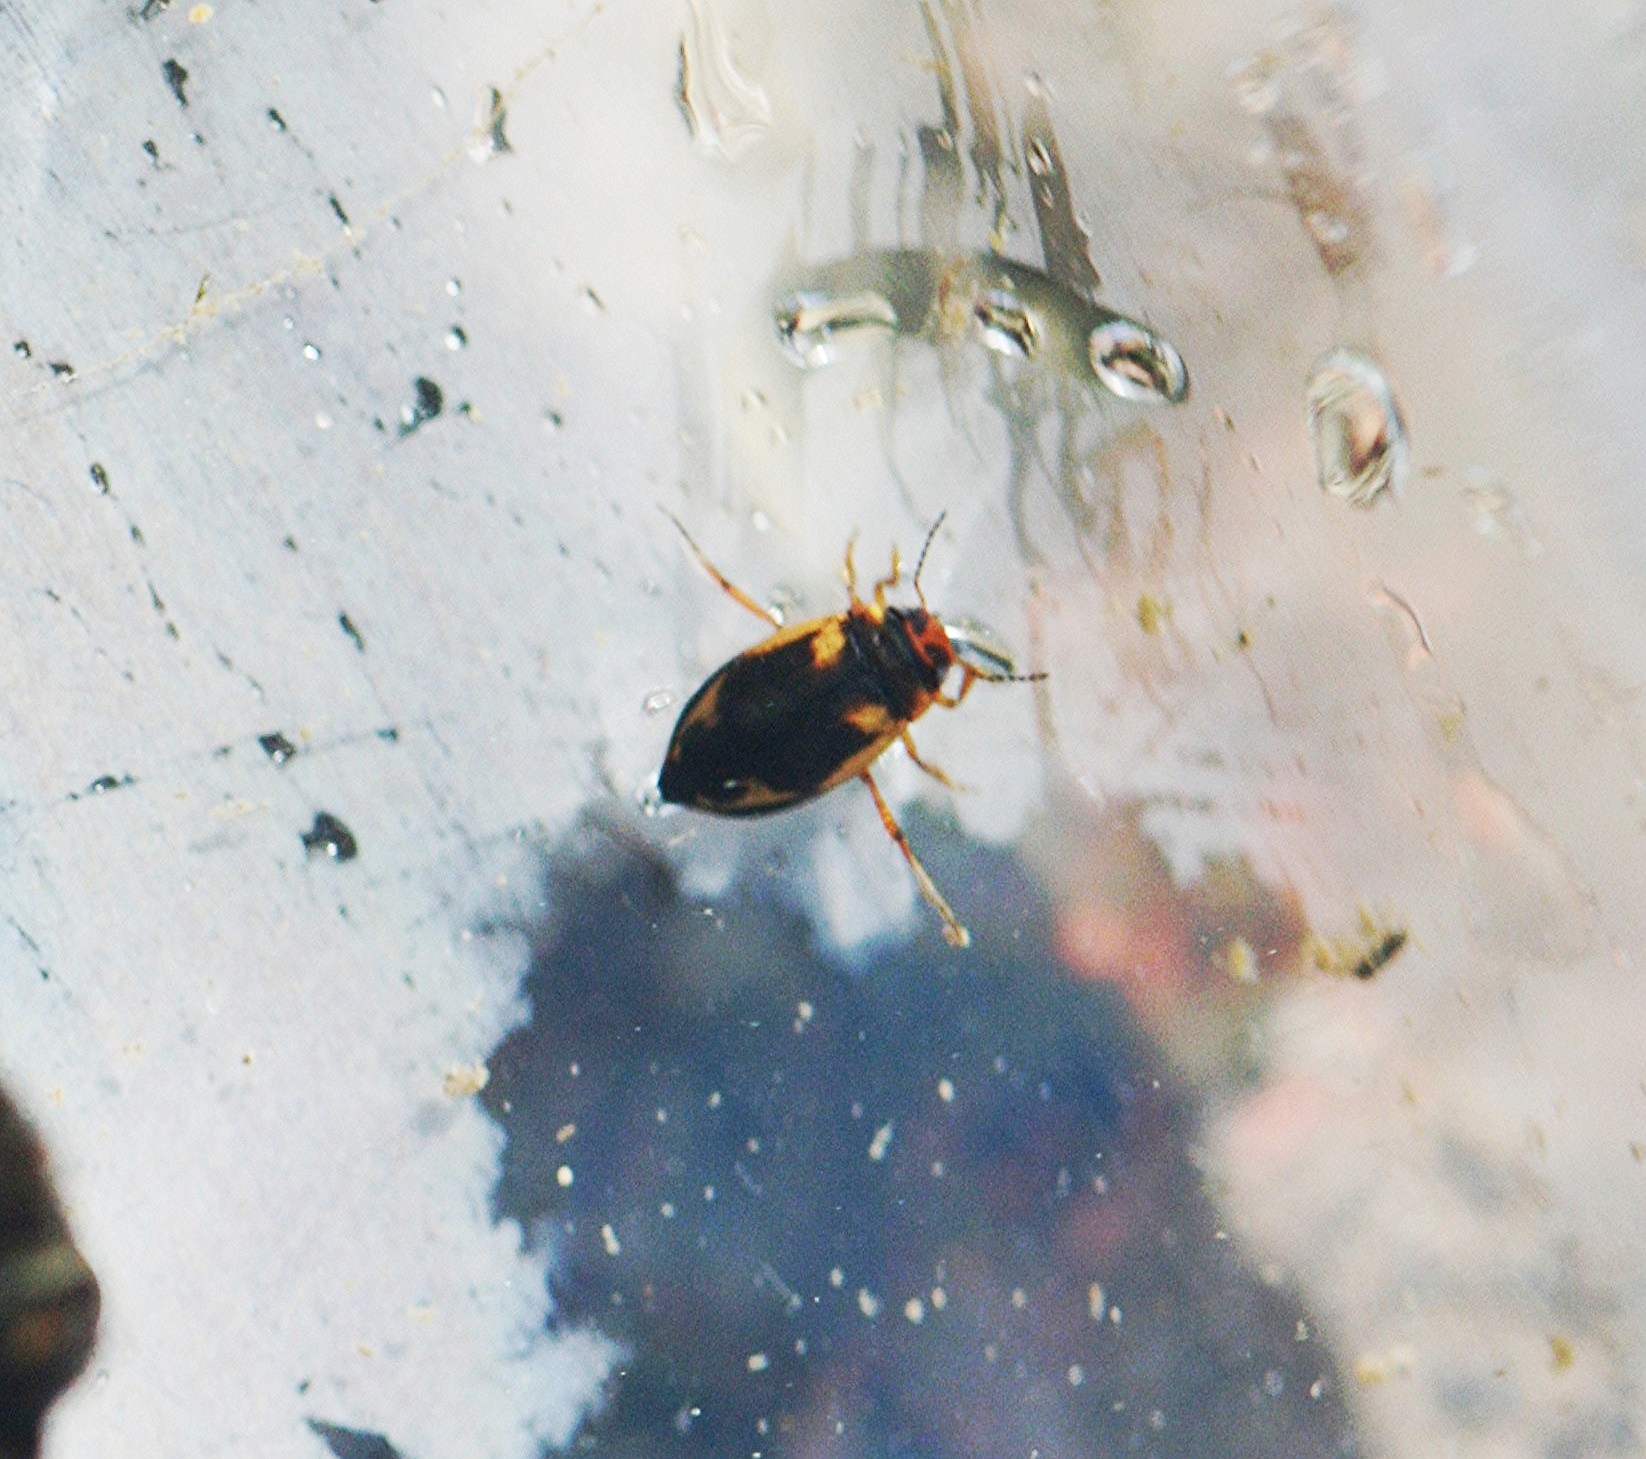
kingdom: Animalia
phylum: Arthropoda
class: Insecta
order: Coleoptera
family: Dytiscidae
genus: Hydroporus
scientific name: Hydroporus palustris
